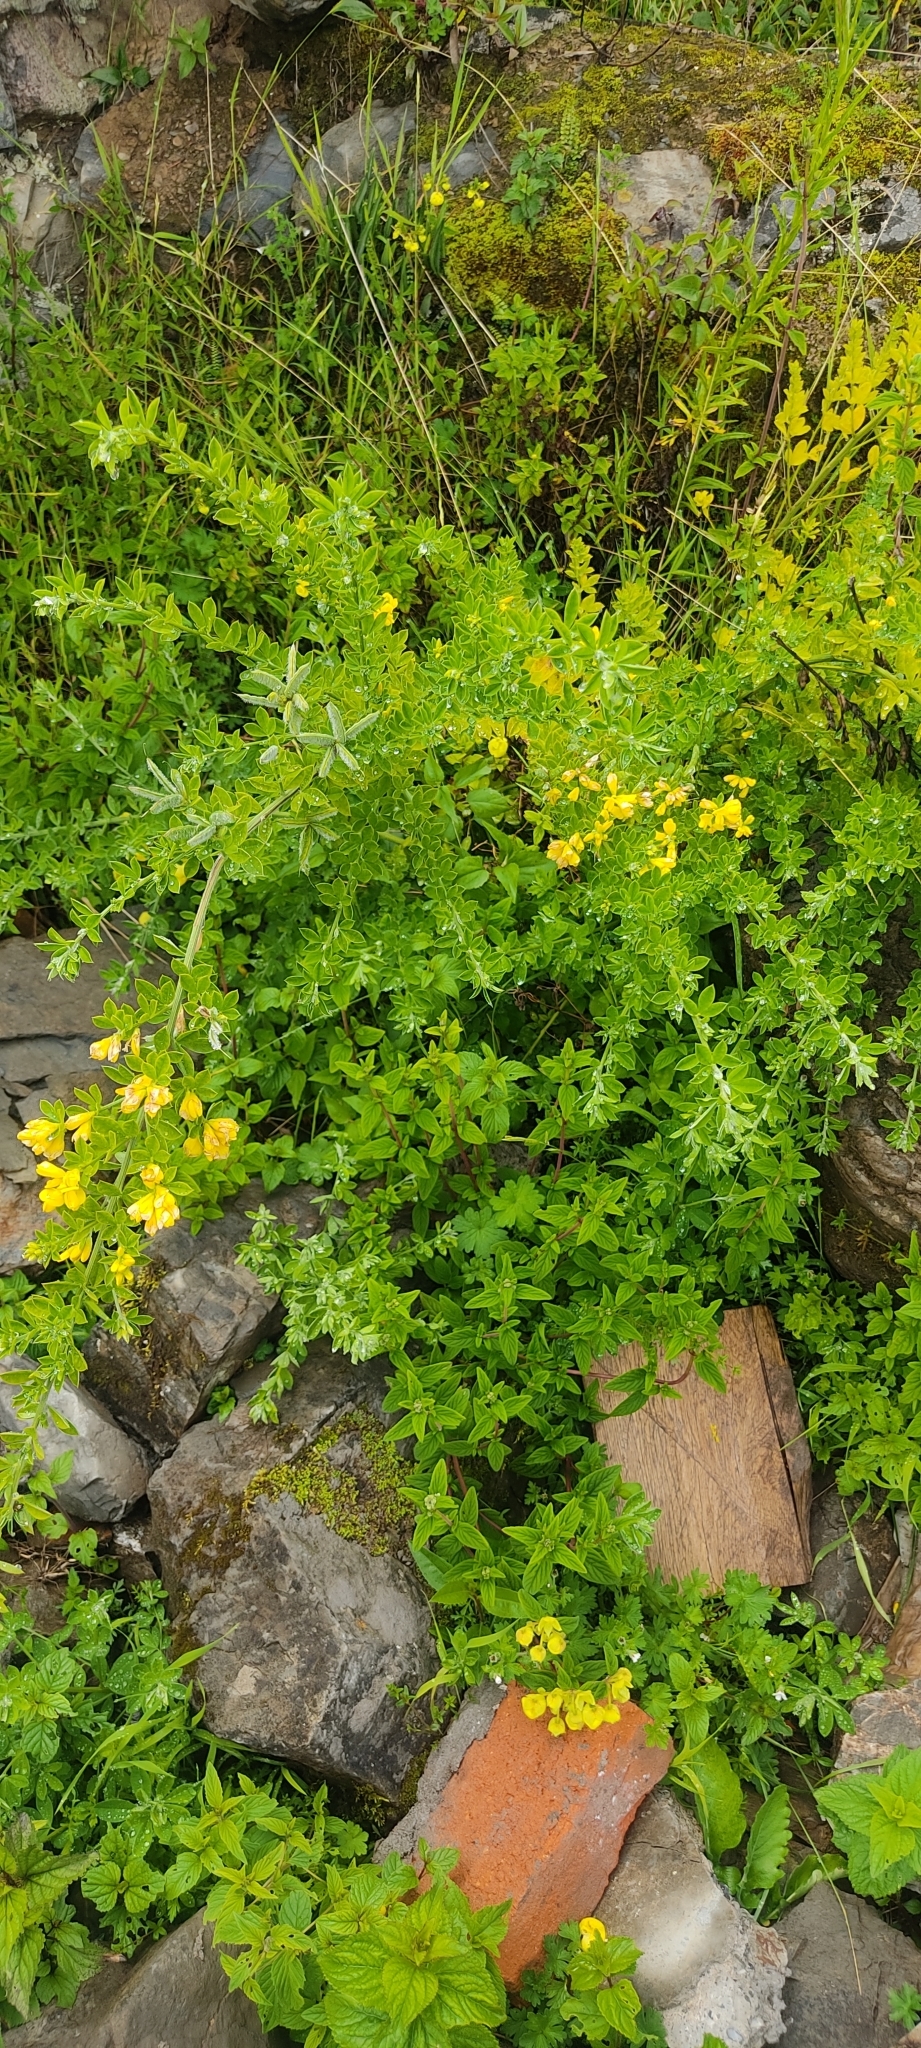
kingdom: Plantae
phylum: Tracheophyta
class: Magnoliopsida
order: Fabales
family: Fabaceae
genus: Genista
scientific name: Genista monspessulana
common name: Montpellier broom
